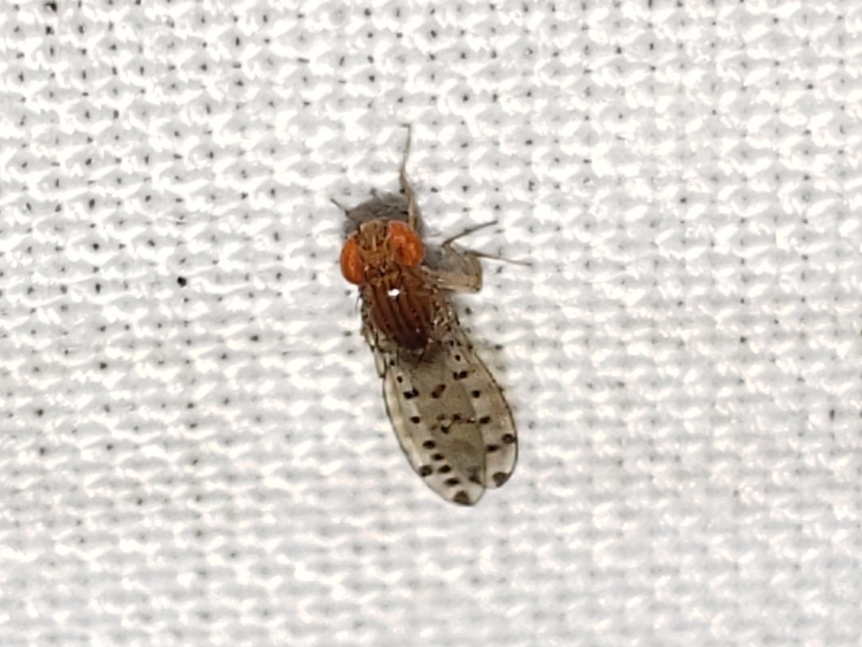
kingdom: Animalia
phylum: Arthropoda
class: Insecta
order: Diptera
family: Drosophilidae
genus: Drosophila
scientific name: Drosophila guttifera
